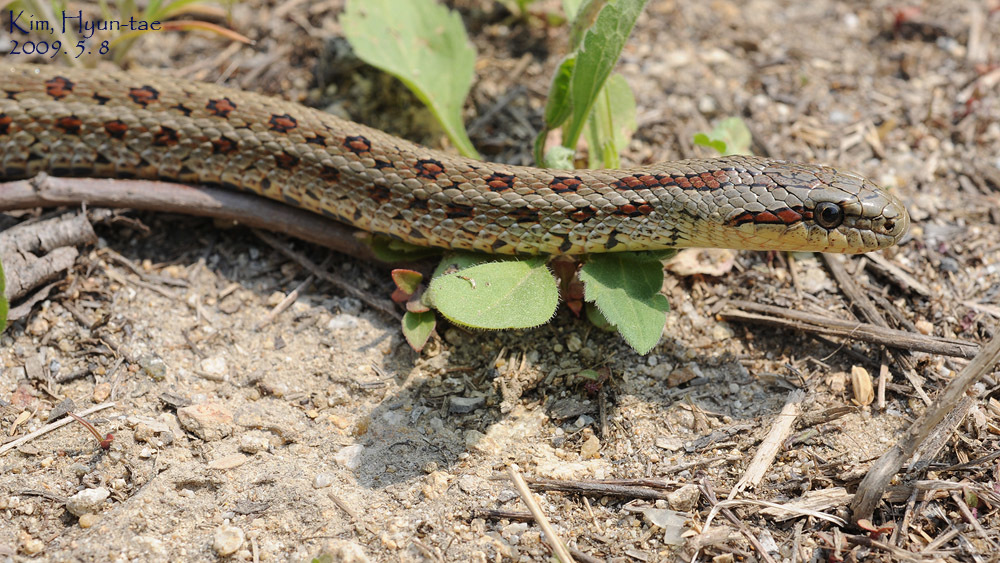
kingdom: Animalia
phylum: Chordata
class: Squamata
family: Colubridae
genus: Elaphe
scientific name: Elaphe dione
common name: Dione ratsnake
